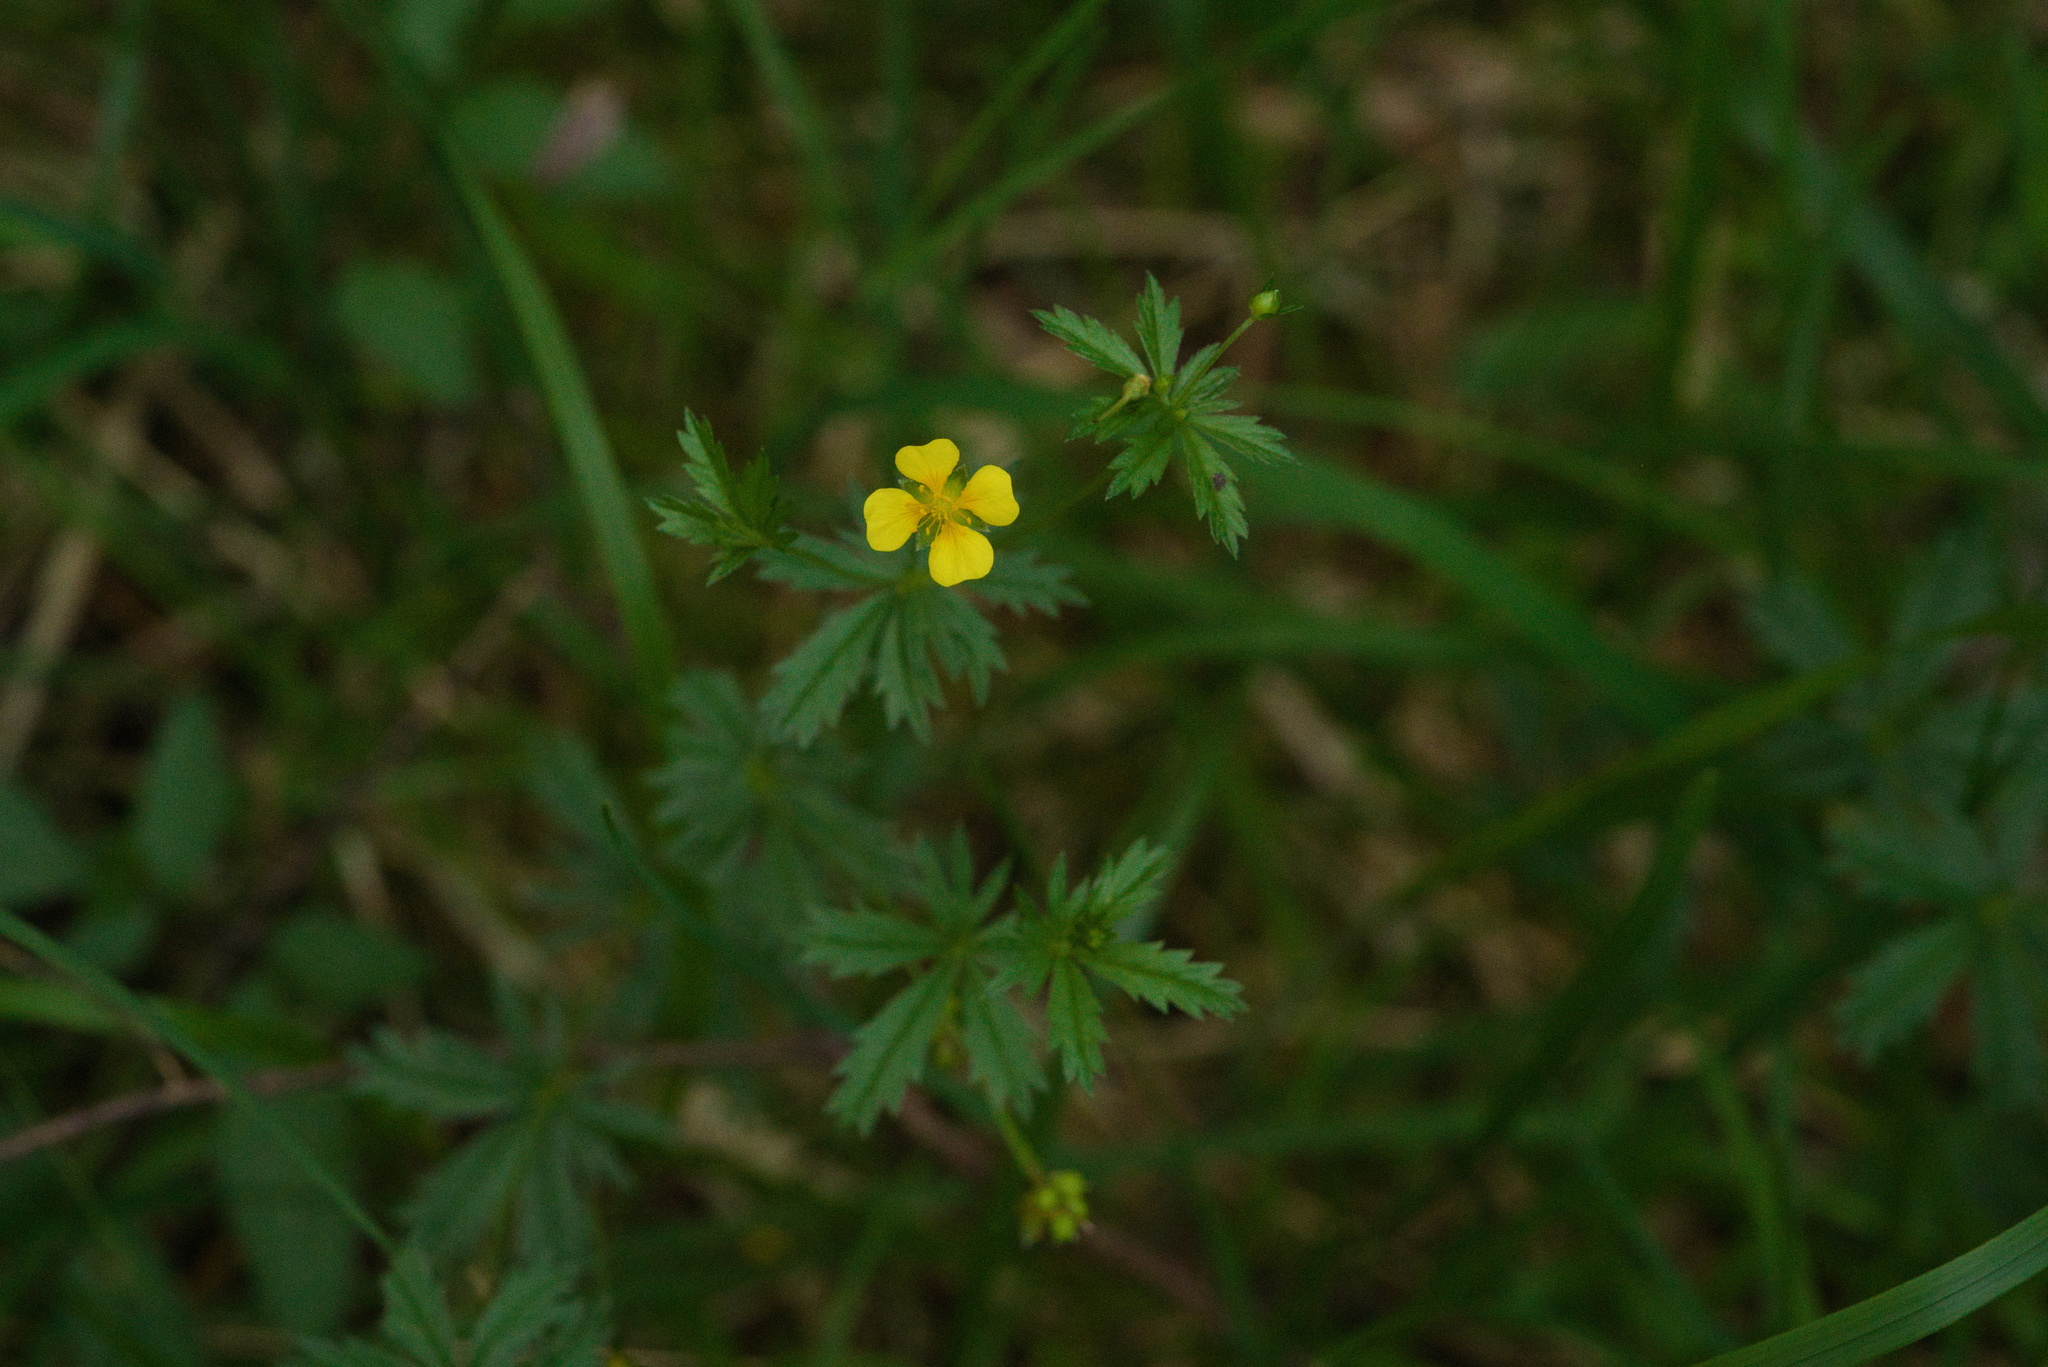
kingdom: Plantae
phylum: Tracheophyta
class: Magnoliopsida
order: Rosales
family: Rosaceae
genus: Potentilla
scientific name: Potentilla erecta
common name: Tormentil
